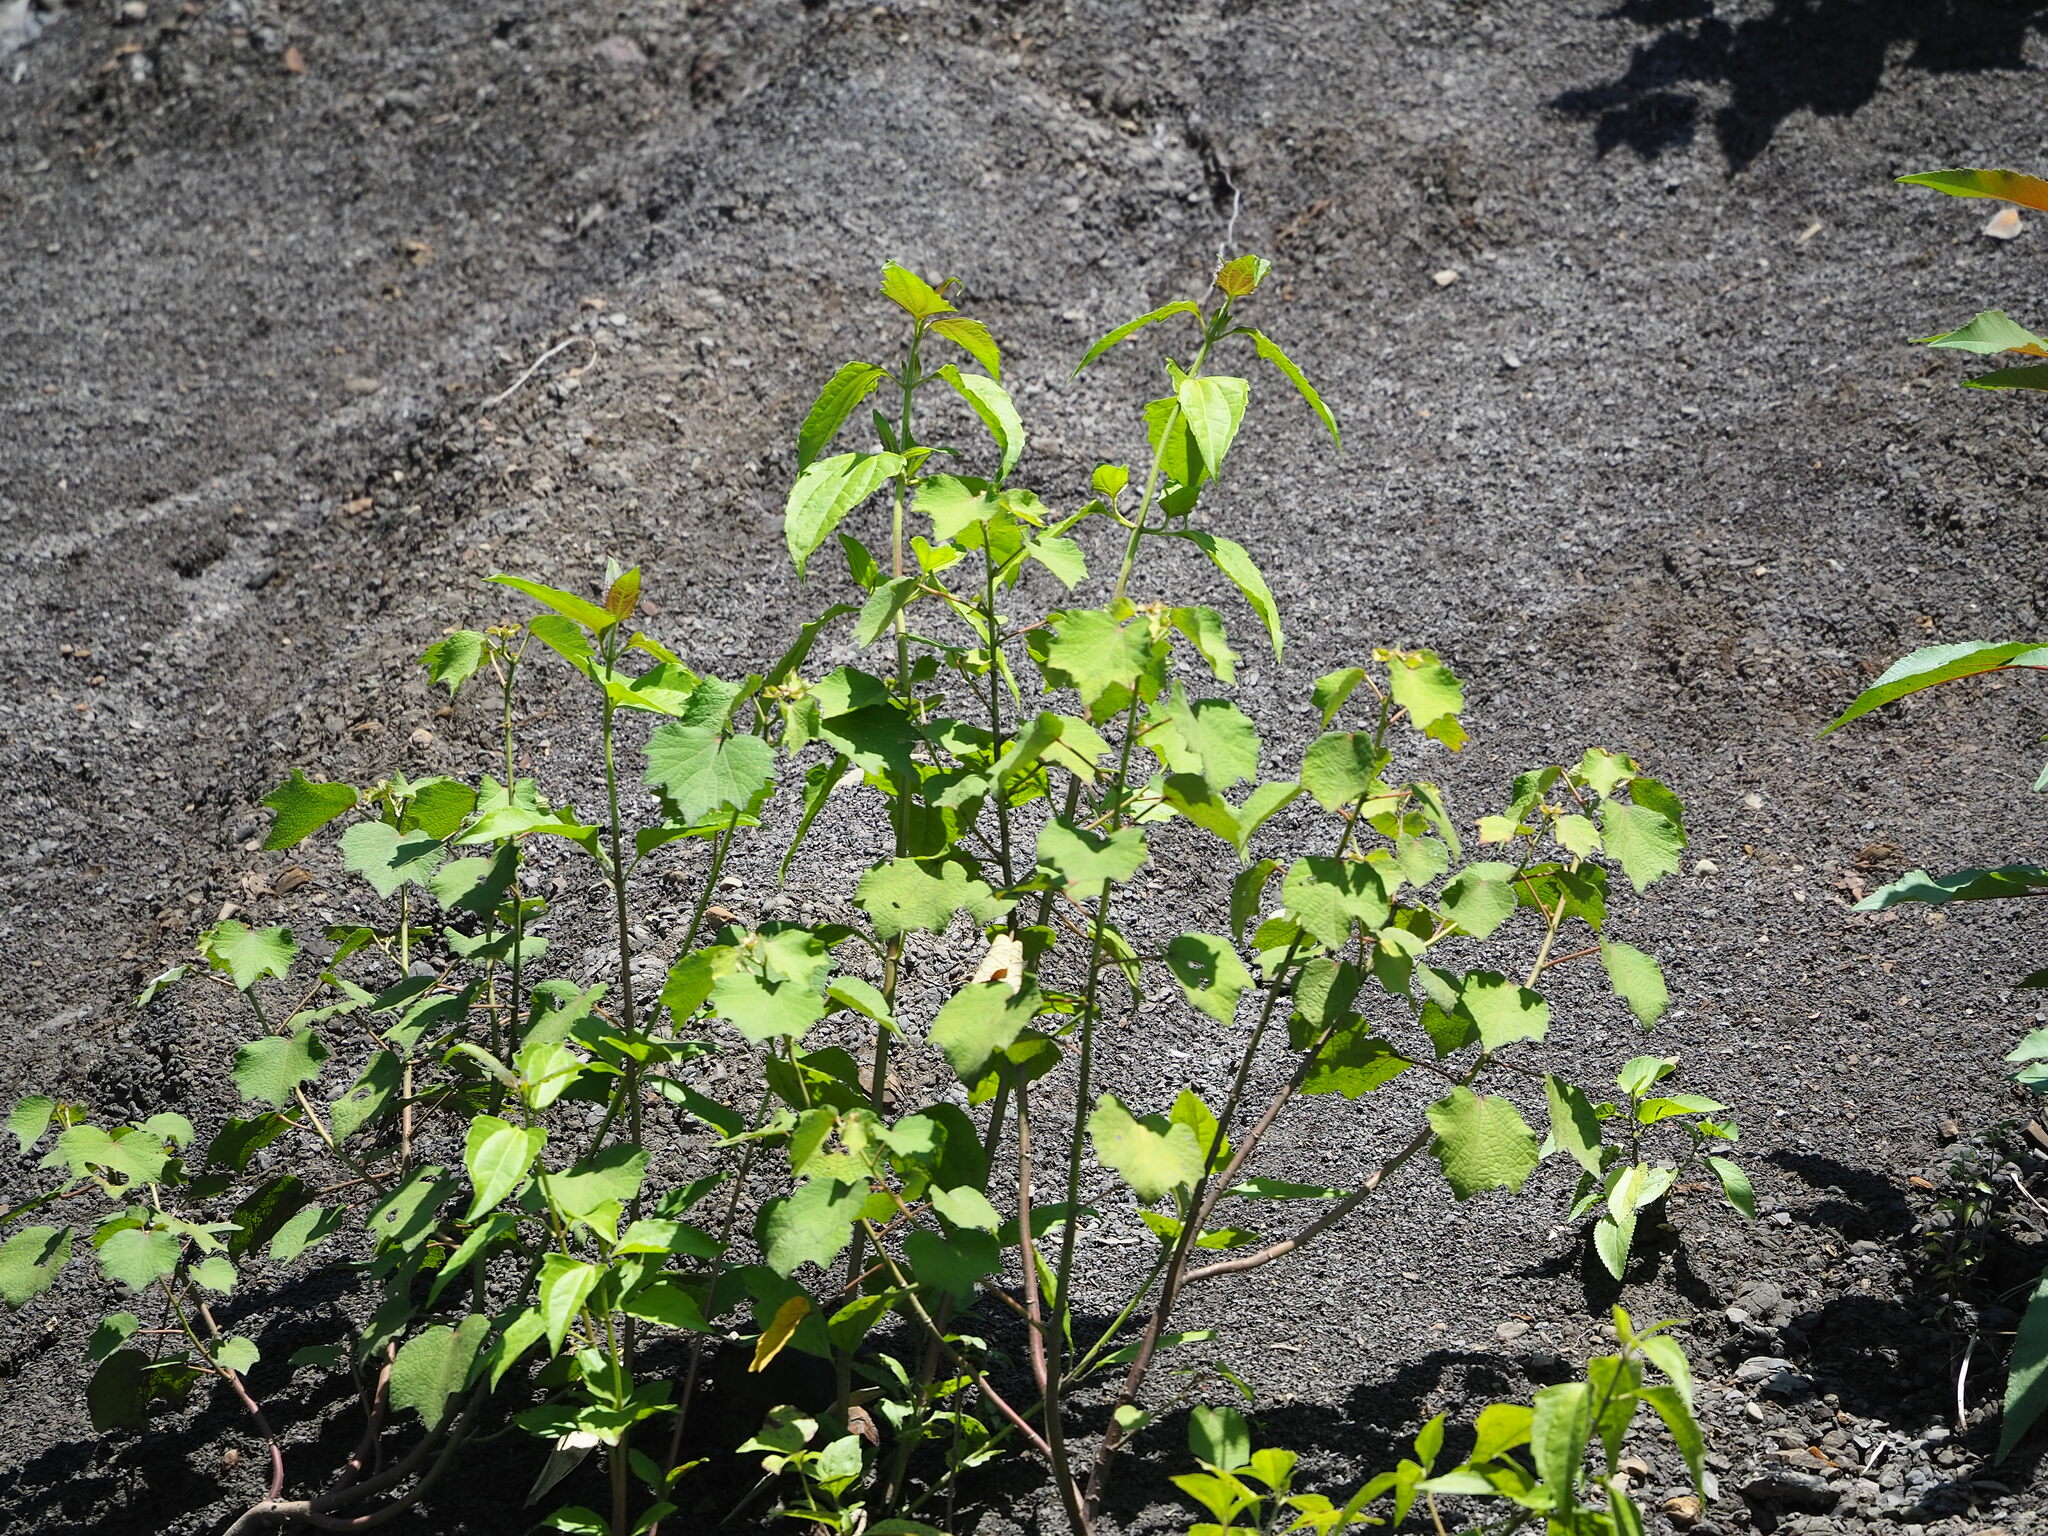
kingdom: Plantae
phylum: Tracheophyta
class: Magnoliopsida
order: Asterales
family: Asteraceae
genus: Chromolaena
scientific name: Chromolaena odorata
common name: Siamweed
